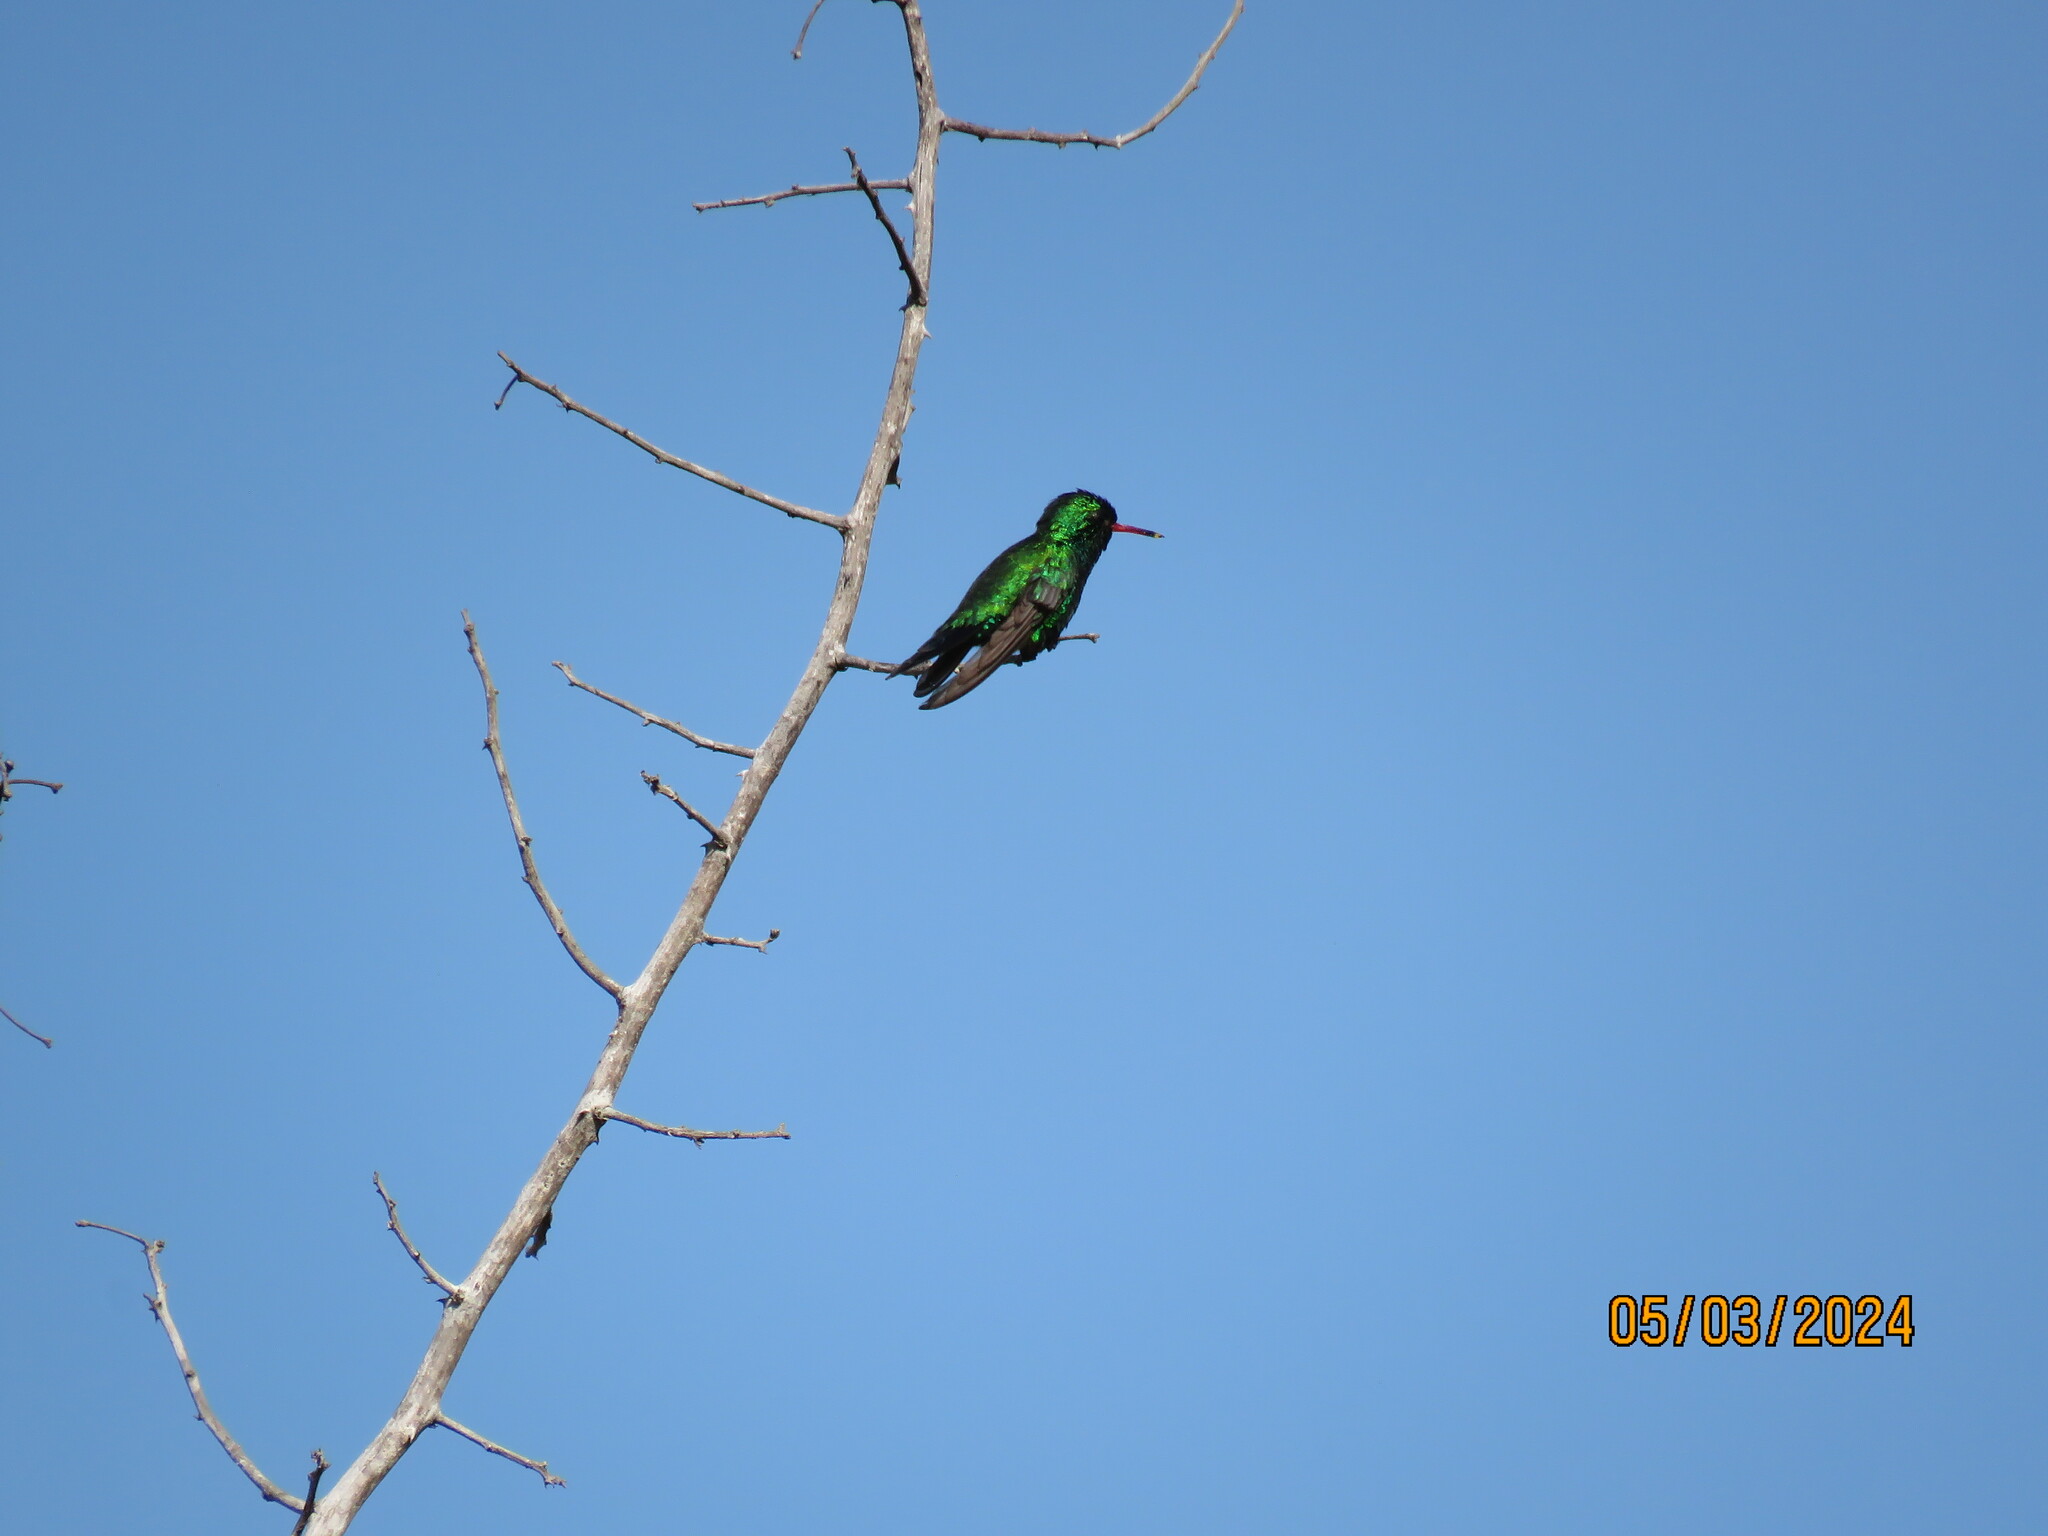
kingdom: Animalia
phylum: Chordata
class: Aves
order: Apodiformes
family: Trochilidae
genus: Cynanthus
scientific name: Cynanthus canivetii
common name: Canivet's emerald
